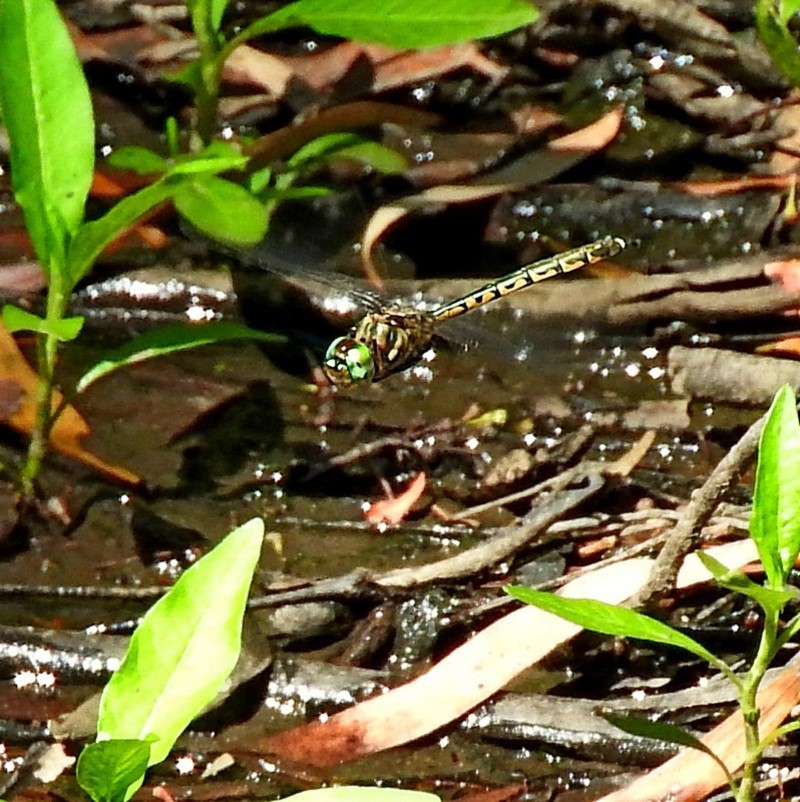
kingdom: Animalia
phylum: Arthropoda
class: Insecta
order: Odonata
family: Corduliidae
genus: Hemicordulia
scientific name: Hemicordulia australiae
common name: Sentry dragonfly
